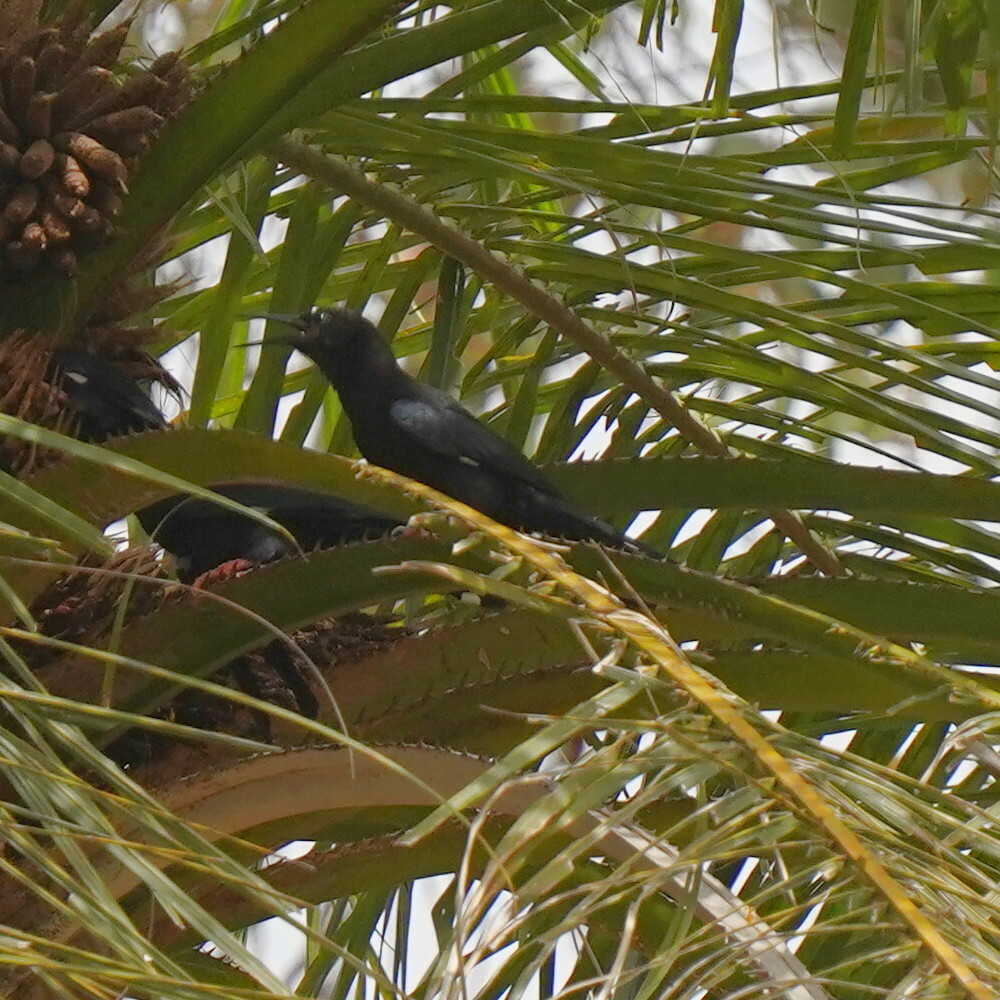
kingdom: Animalia
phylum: Chordata
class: Aves
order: Bucerotiformes
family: Phoeniculidae
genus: Phoeniculus
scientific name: Phoeniculus purpureus
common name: Green woodhoopoe
